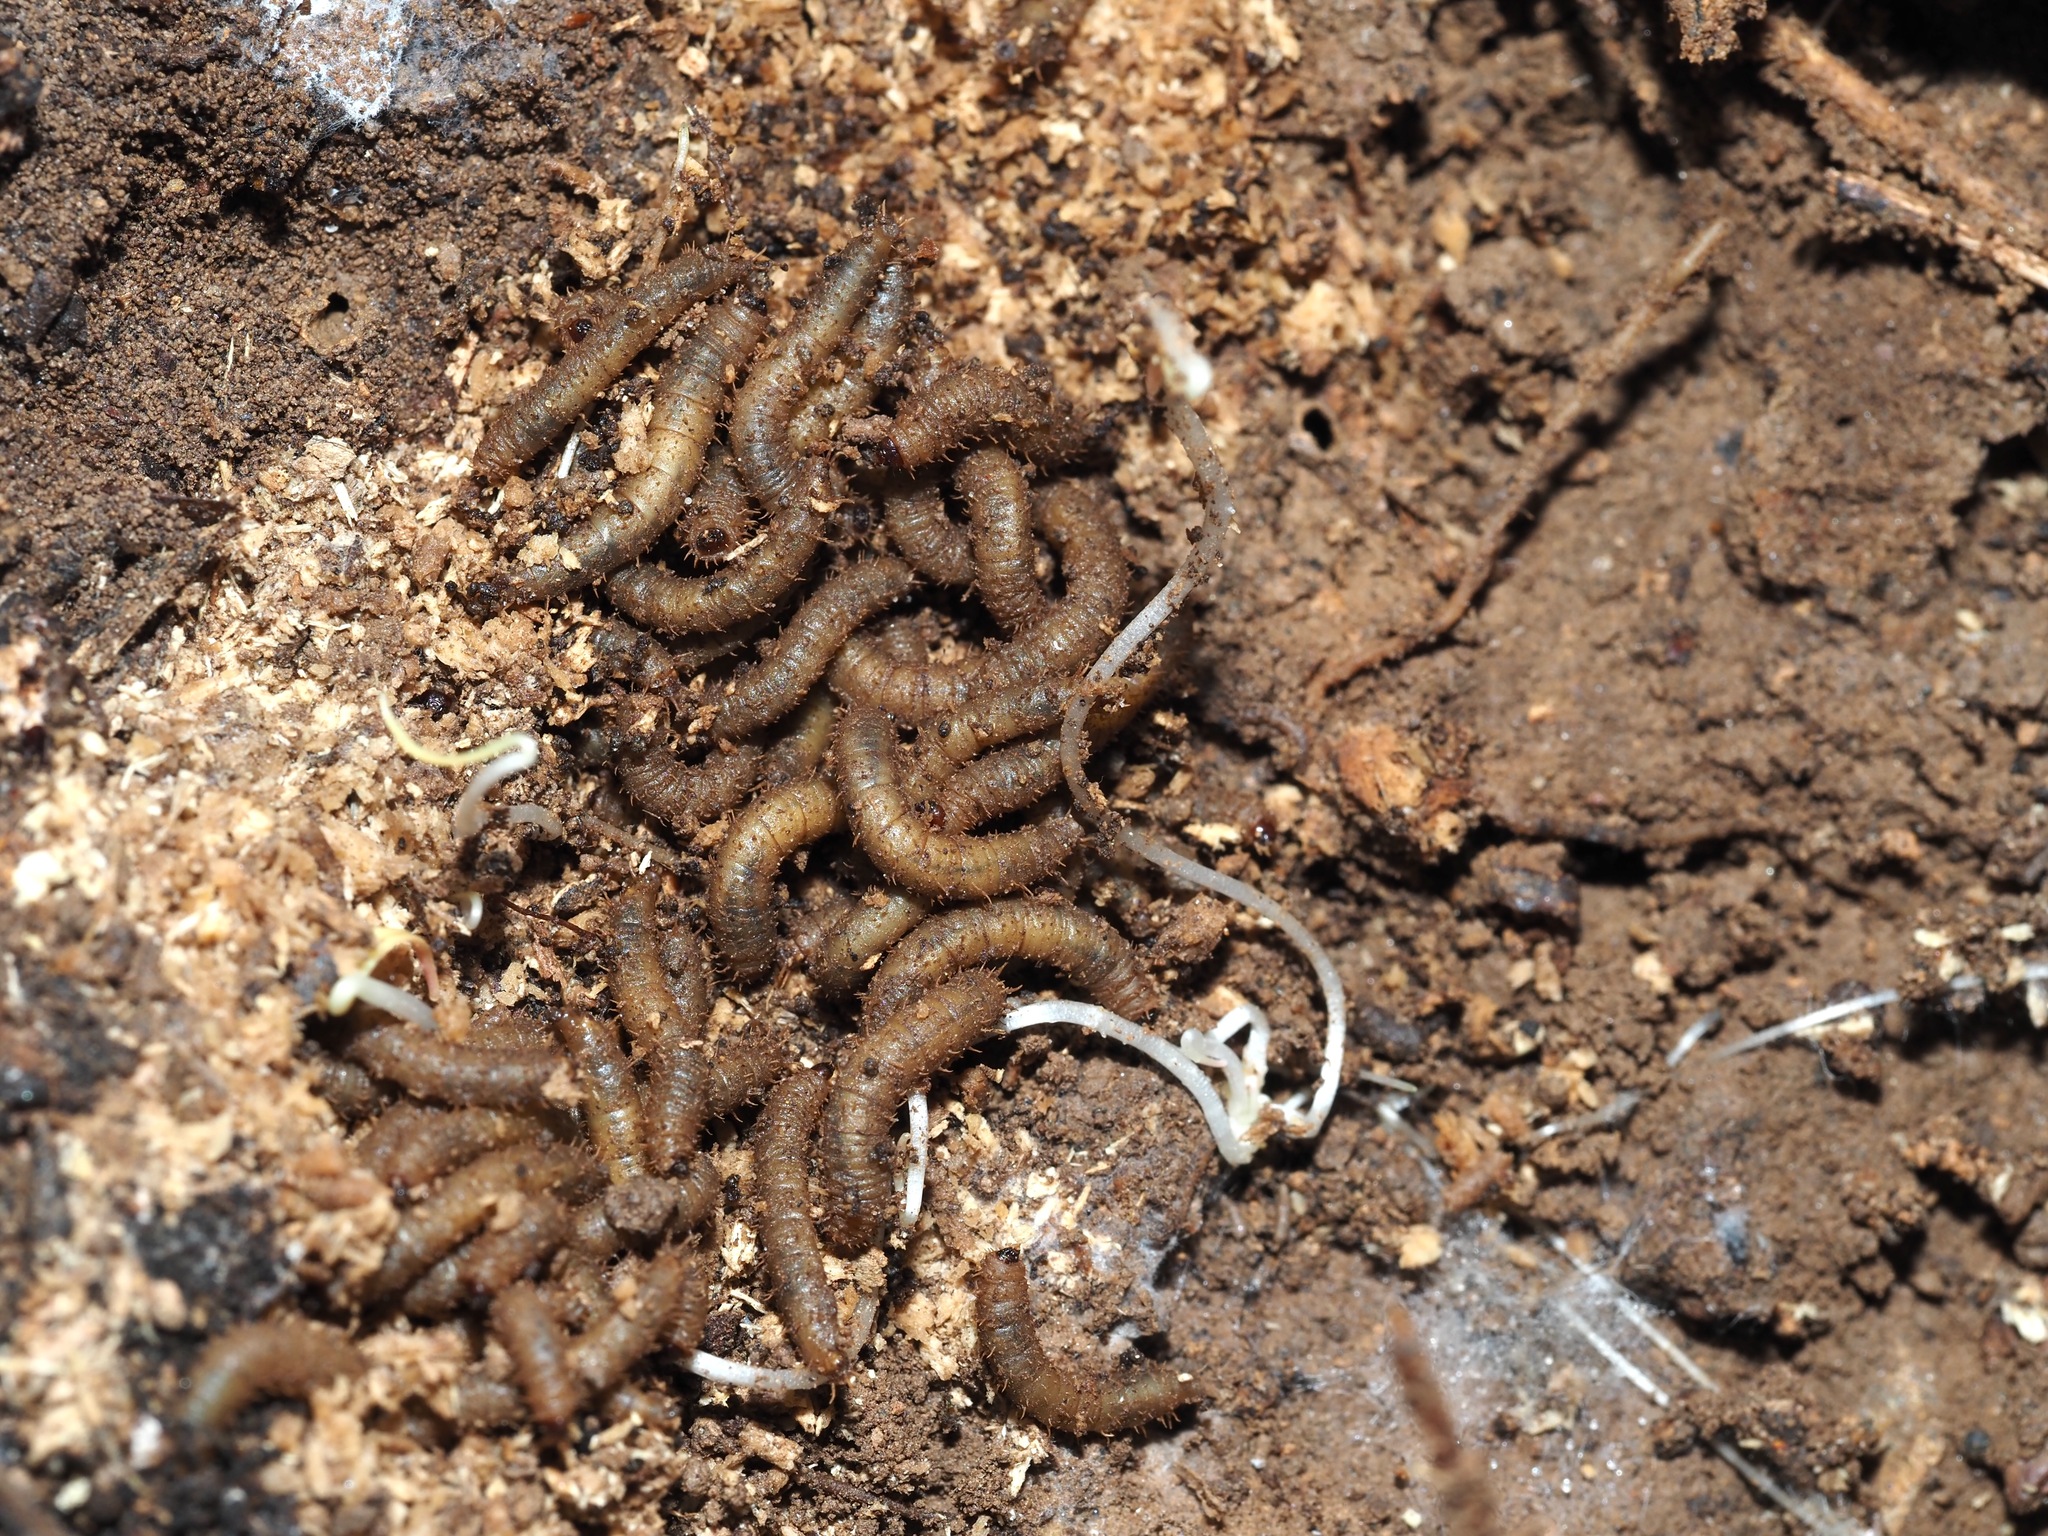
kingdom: Animalia
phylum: Arthropoda
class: Insecta
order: Diptera
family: Bibionidae
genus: Bibio
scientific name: Bibio
